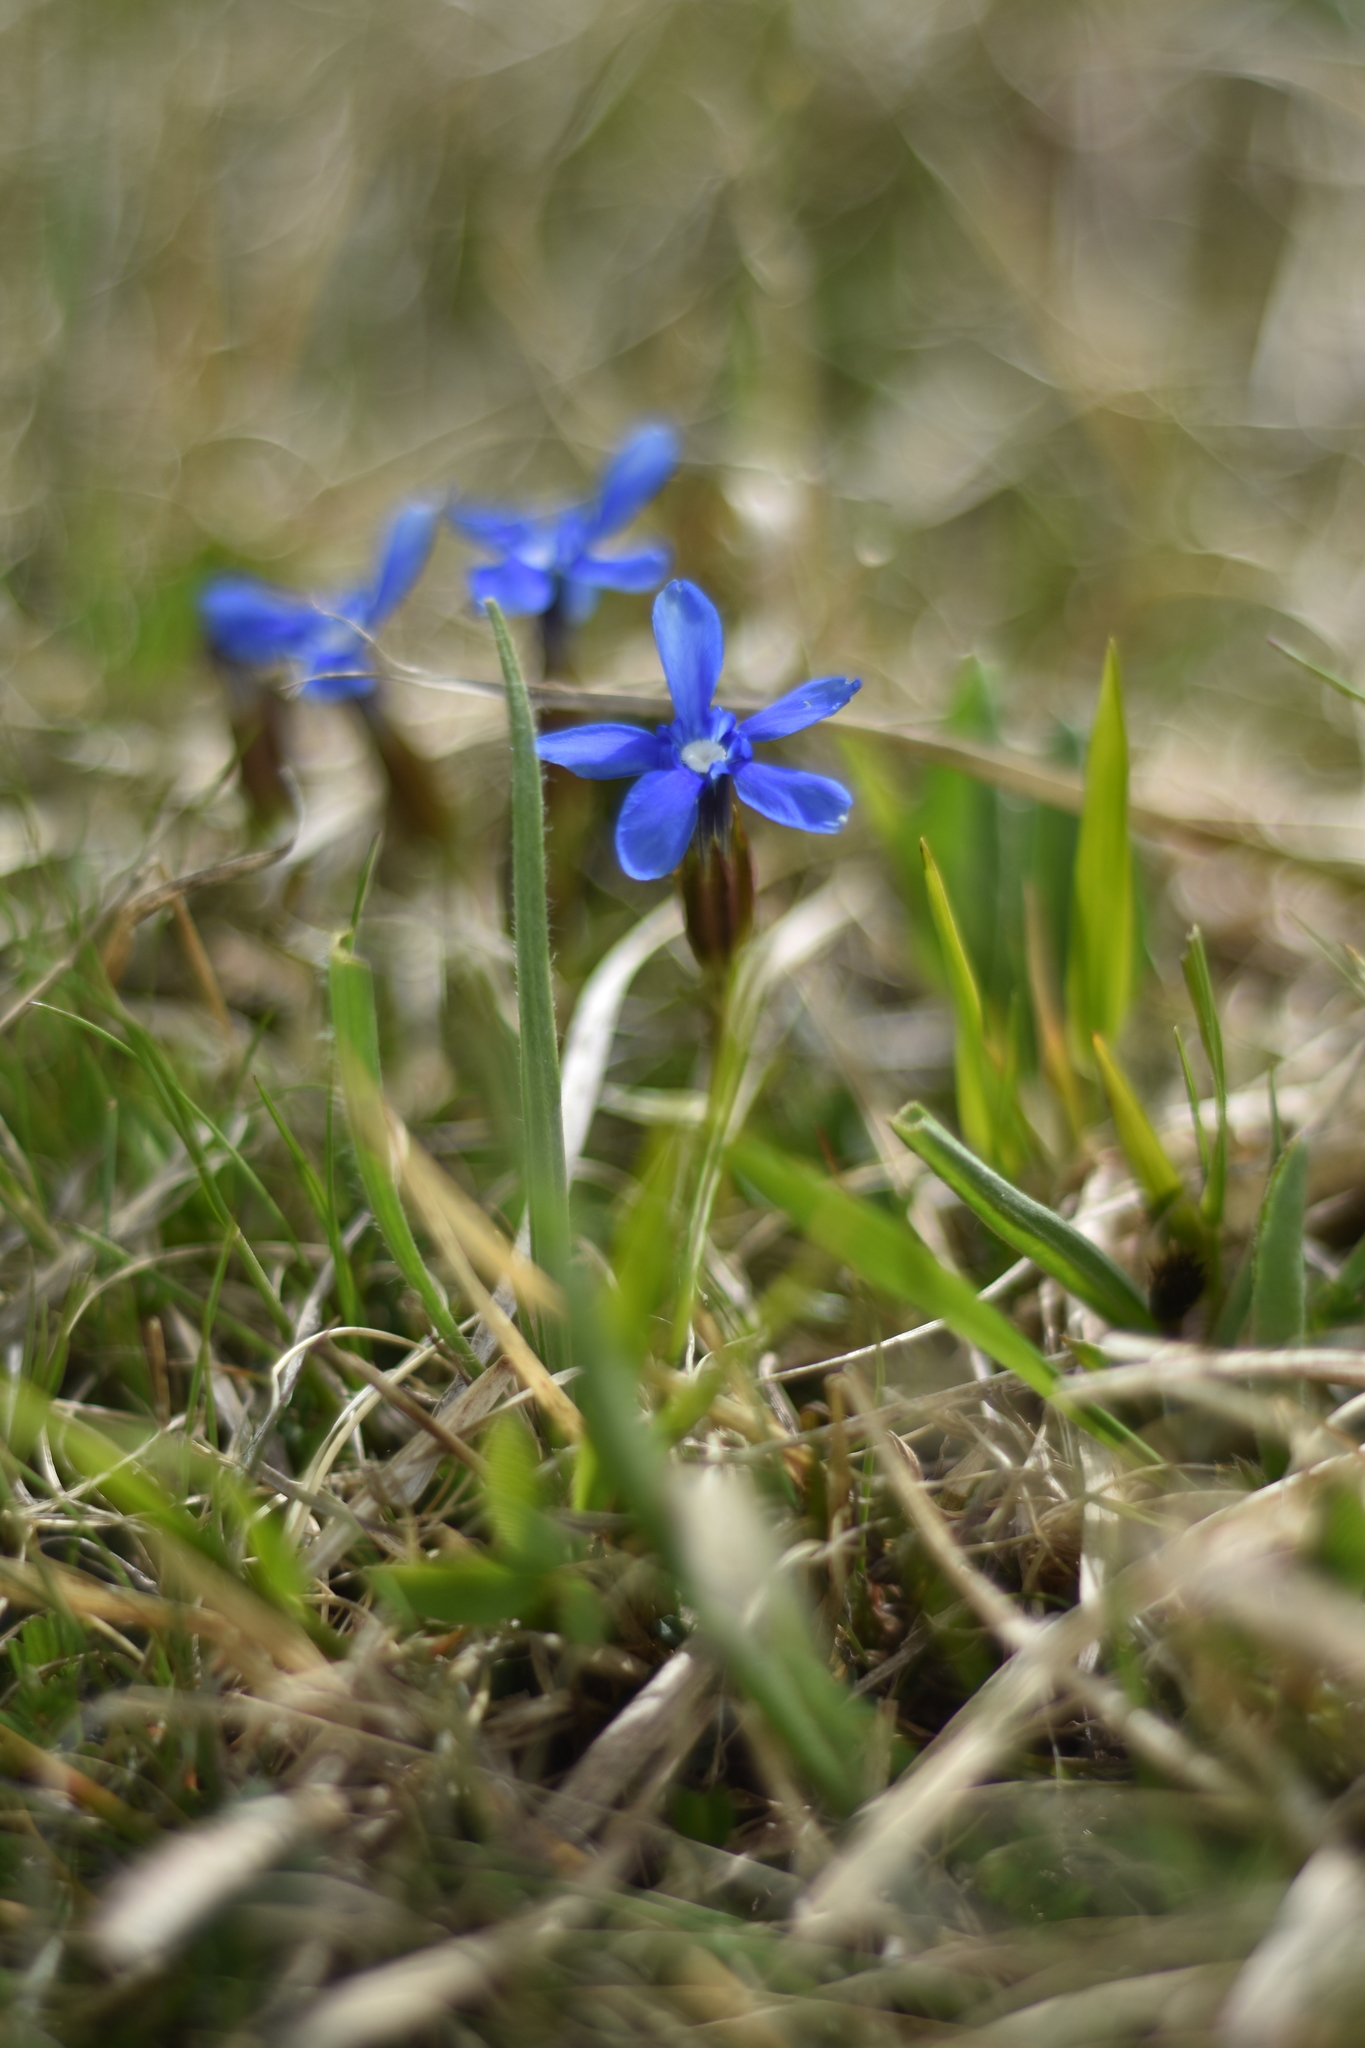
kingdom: Plantae
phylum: Tracheophyta
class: Magnoliopsida
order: Gentianales
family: Gentianaceae
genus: Gentiana
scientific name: Gentiana verna
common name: Spring gentian
